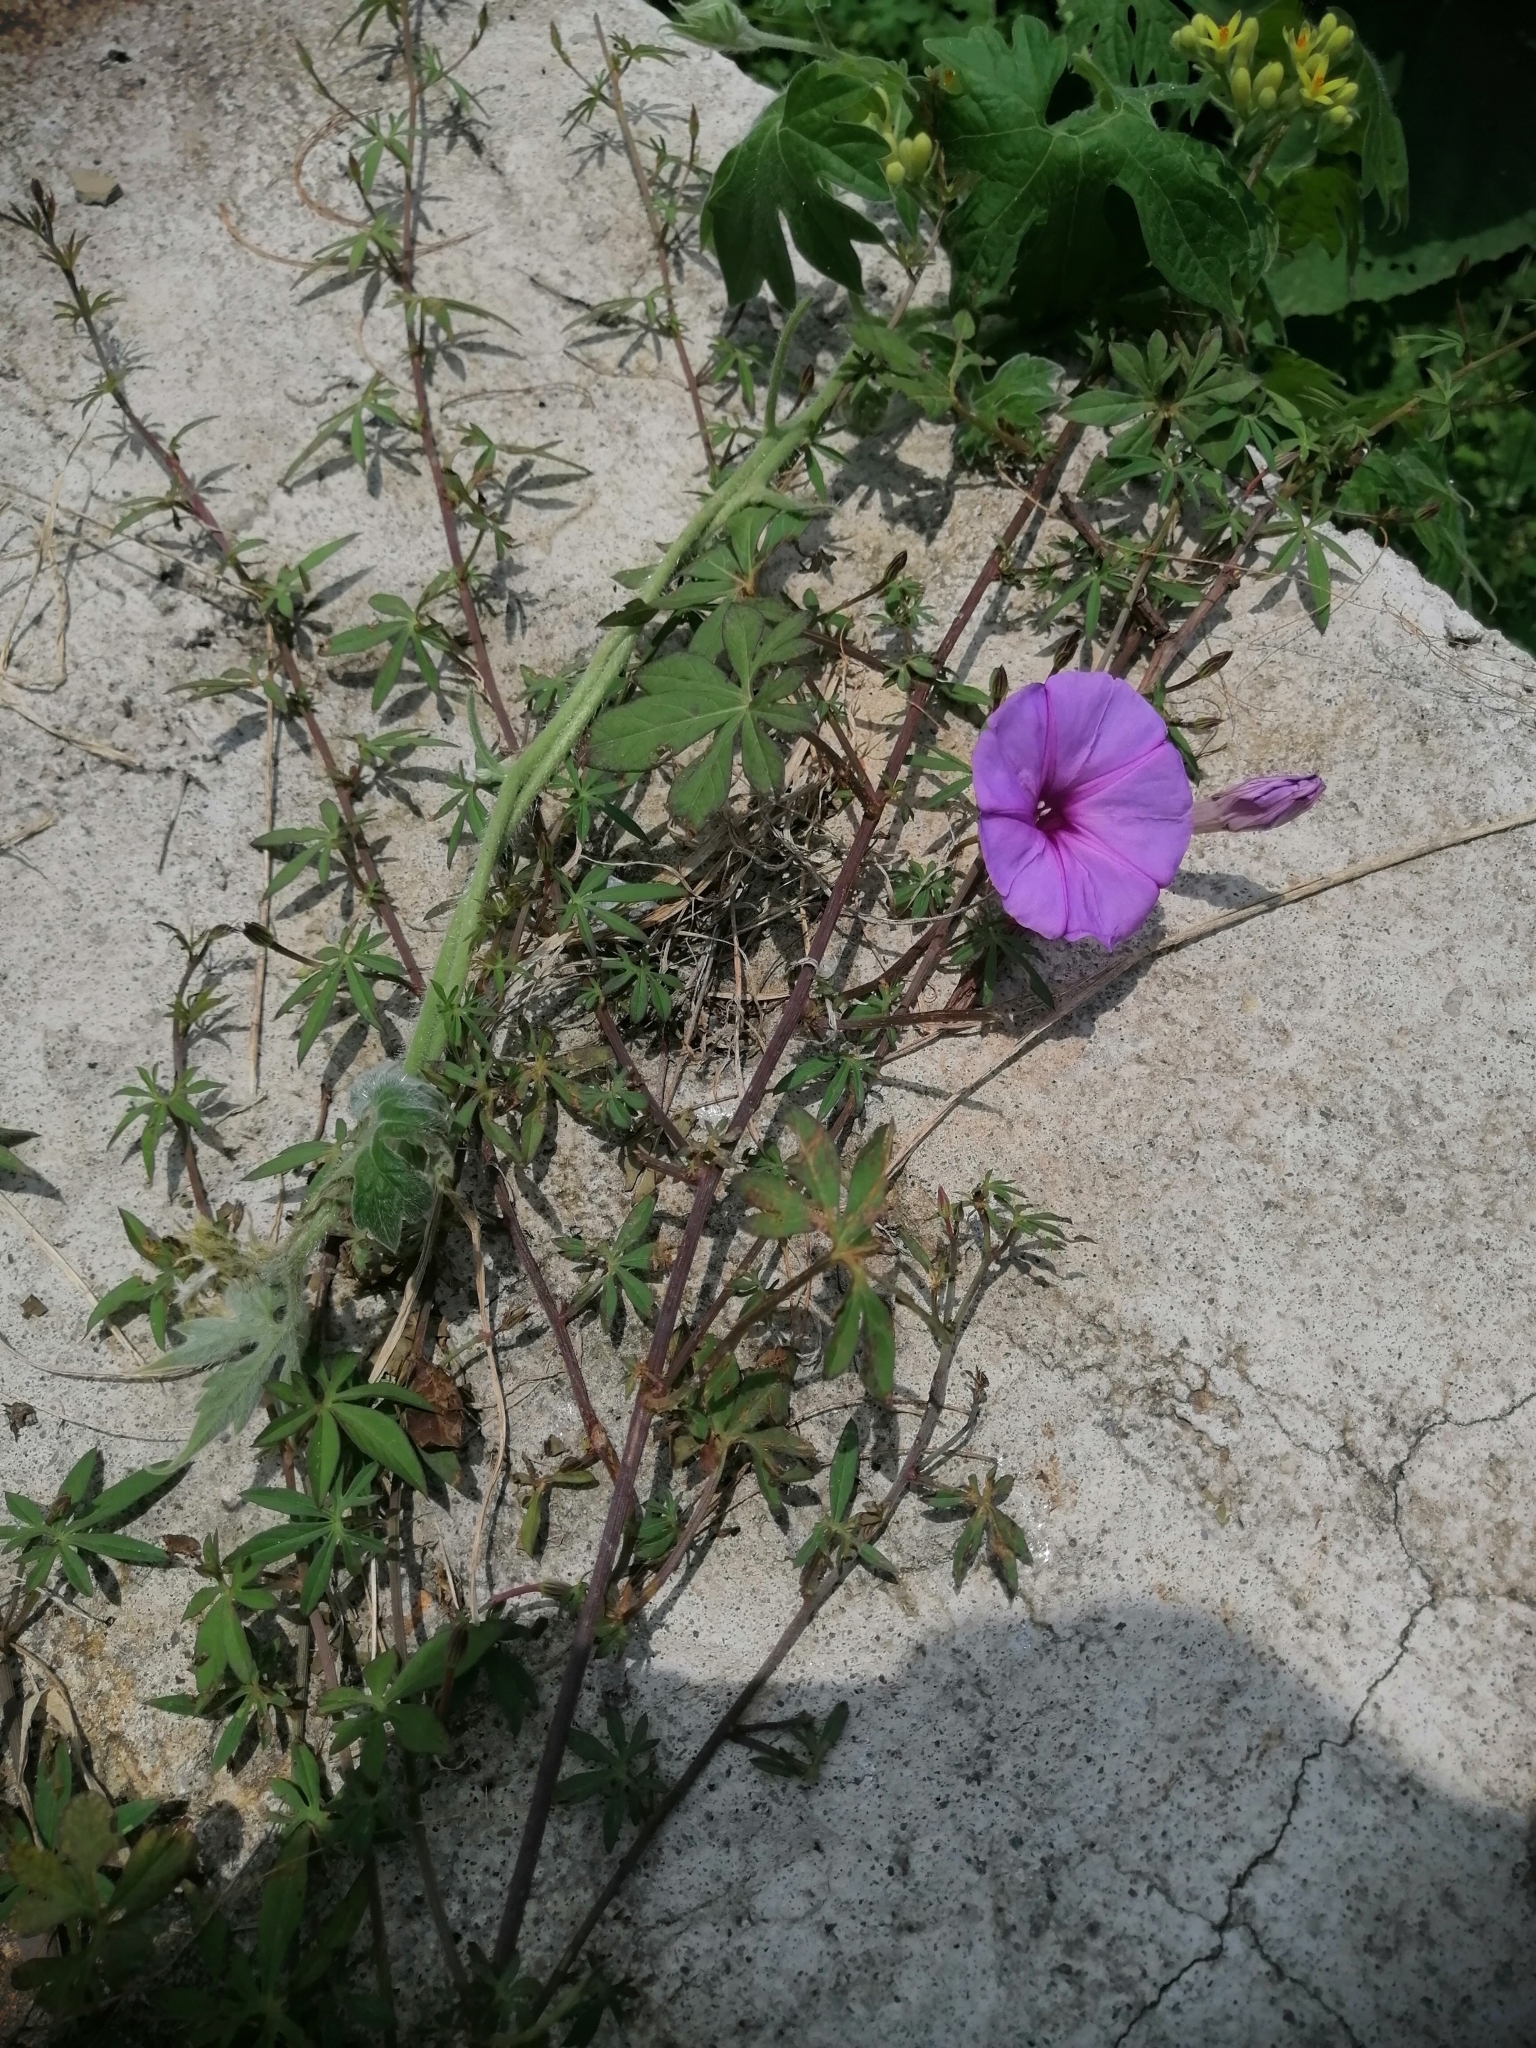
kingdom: Plantae
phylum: Tracheophyta
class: Magnoliopsida
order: Solanales
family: Convolvulaceae
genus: Ipomoea
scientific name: Ipomoea ternifolia
